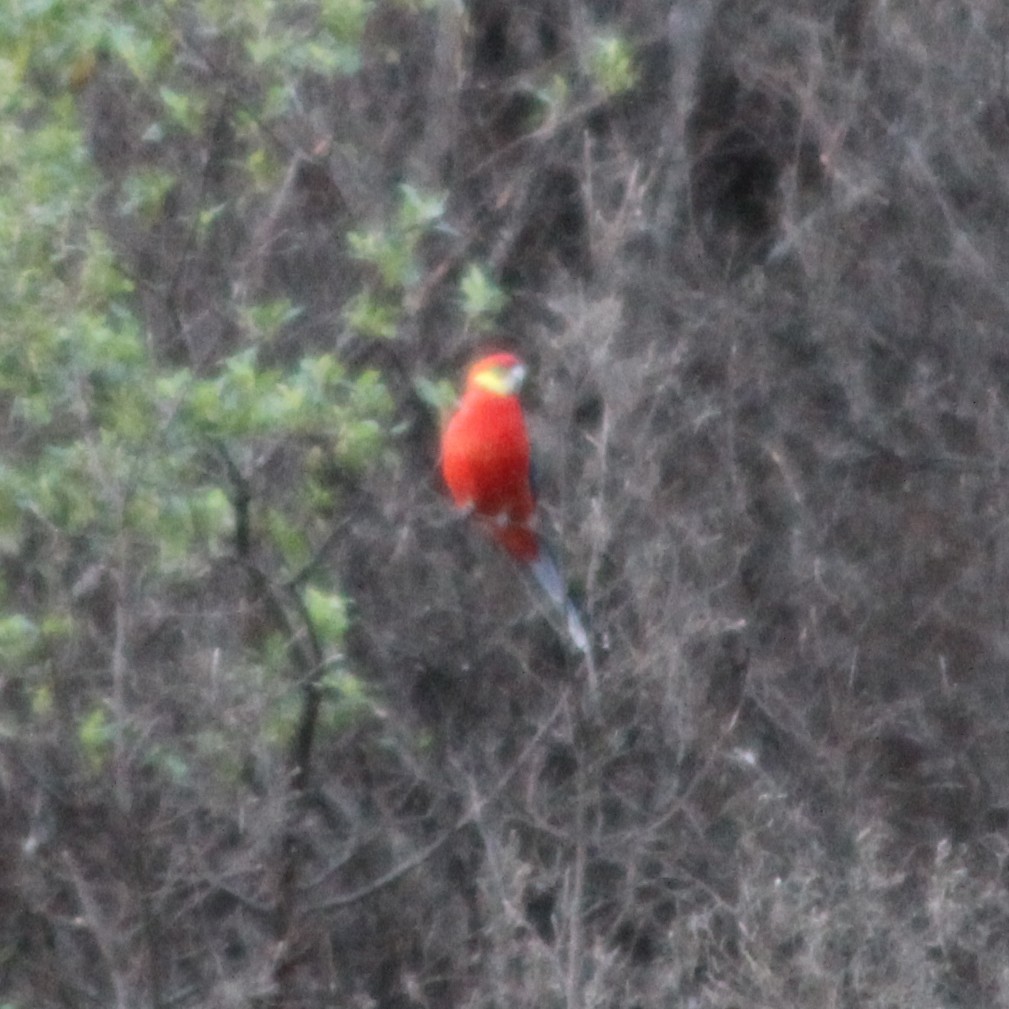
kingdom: Animalia
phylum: Chordata
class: Aves
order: Psittaciformes
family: Psittacidae
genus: Platycercus
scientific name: Platycercus icterotis
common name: Western rosella
